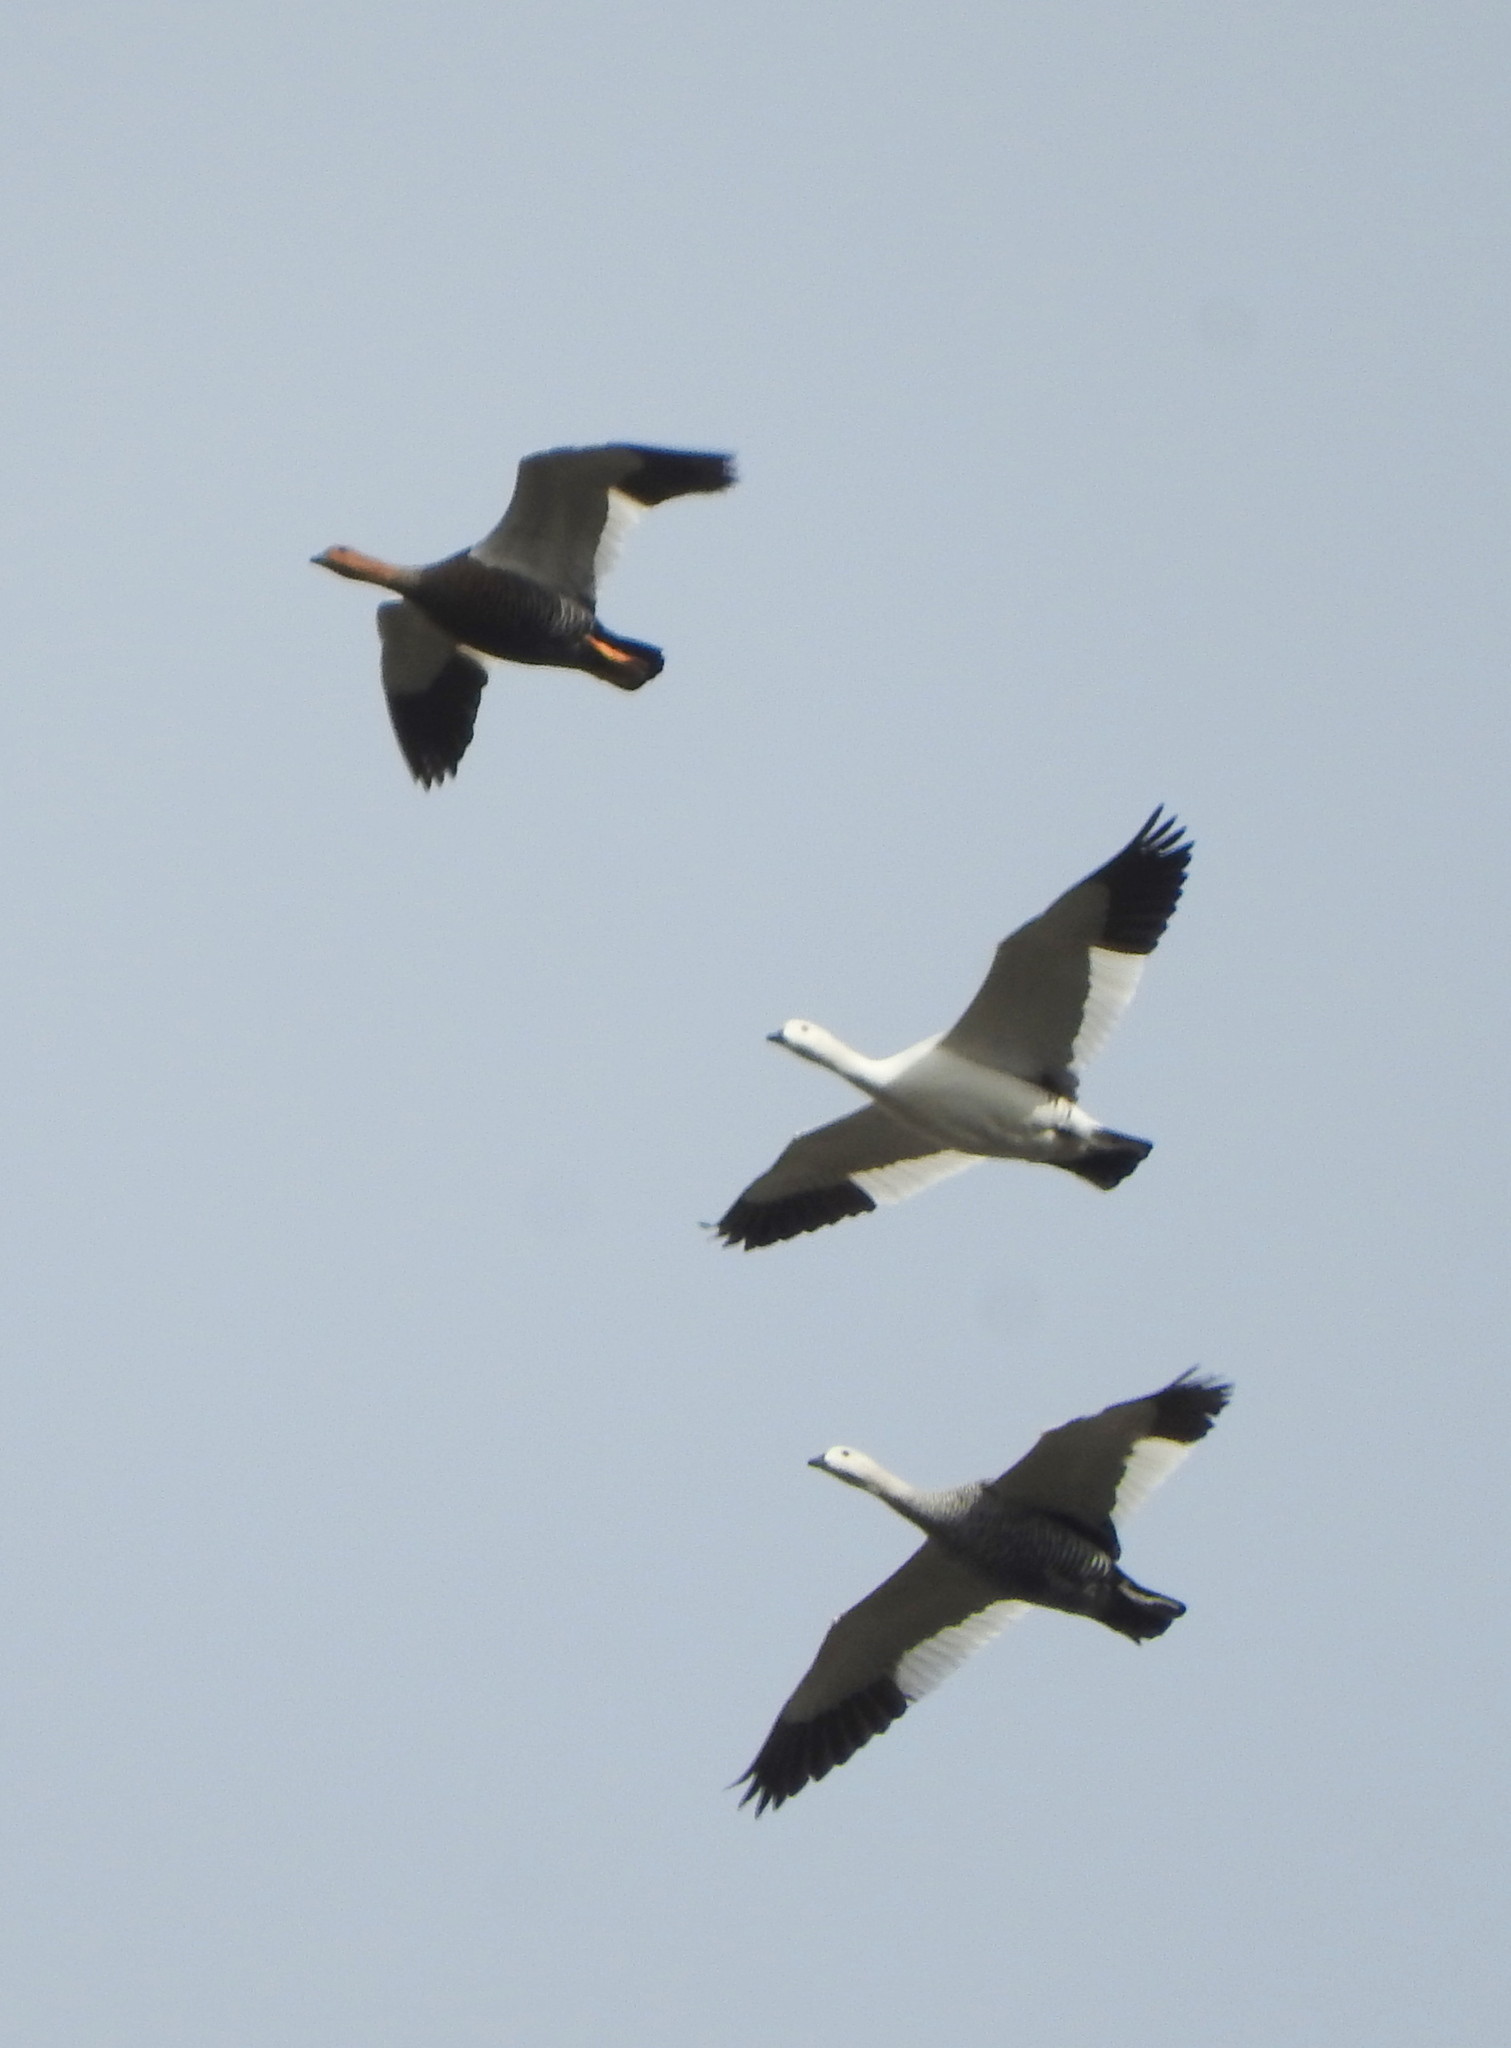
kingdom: Animalia
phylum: Chordata
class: Aves
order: Anseriformes
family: Anatidae
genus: Chloephaga
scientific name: Chloephaga picta
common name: Upland goose
